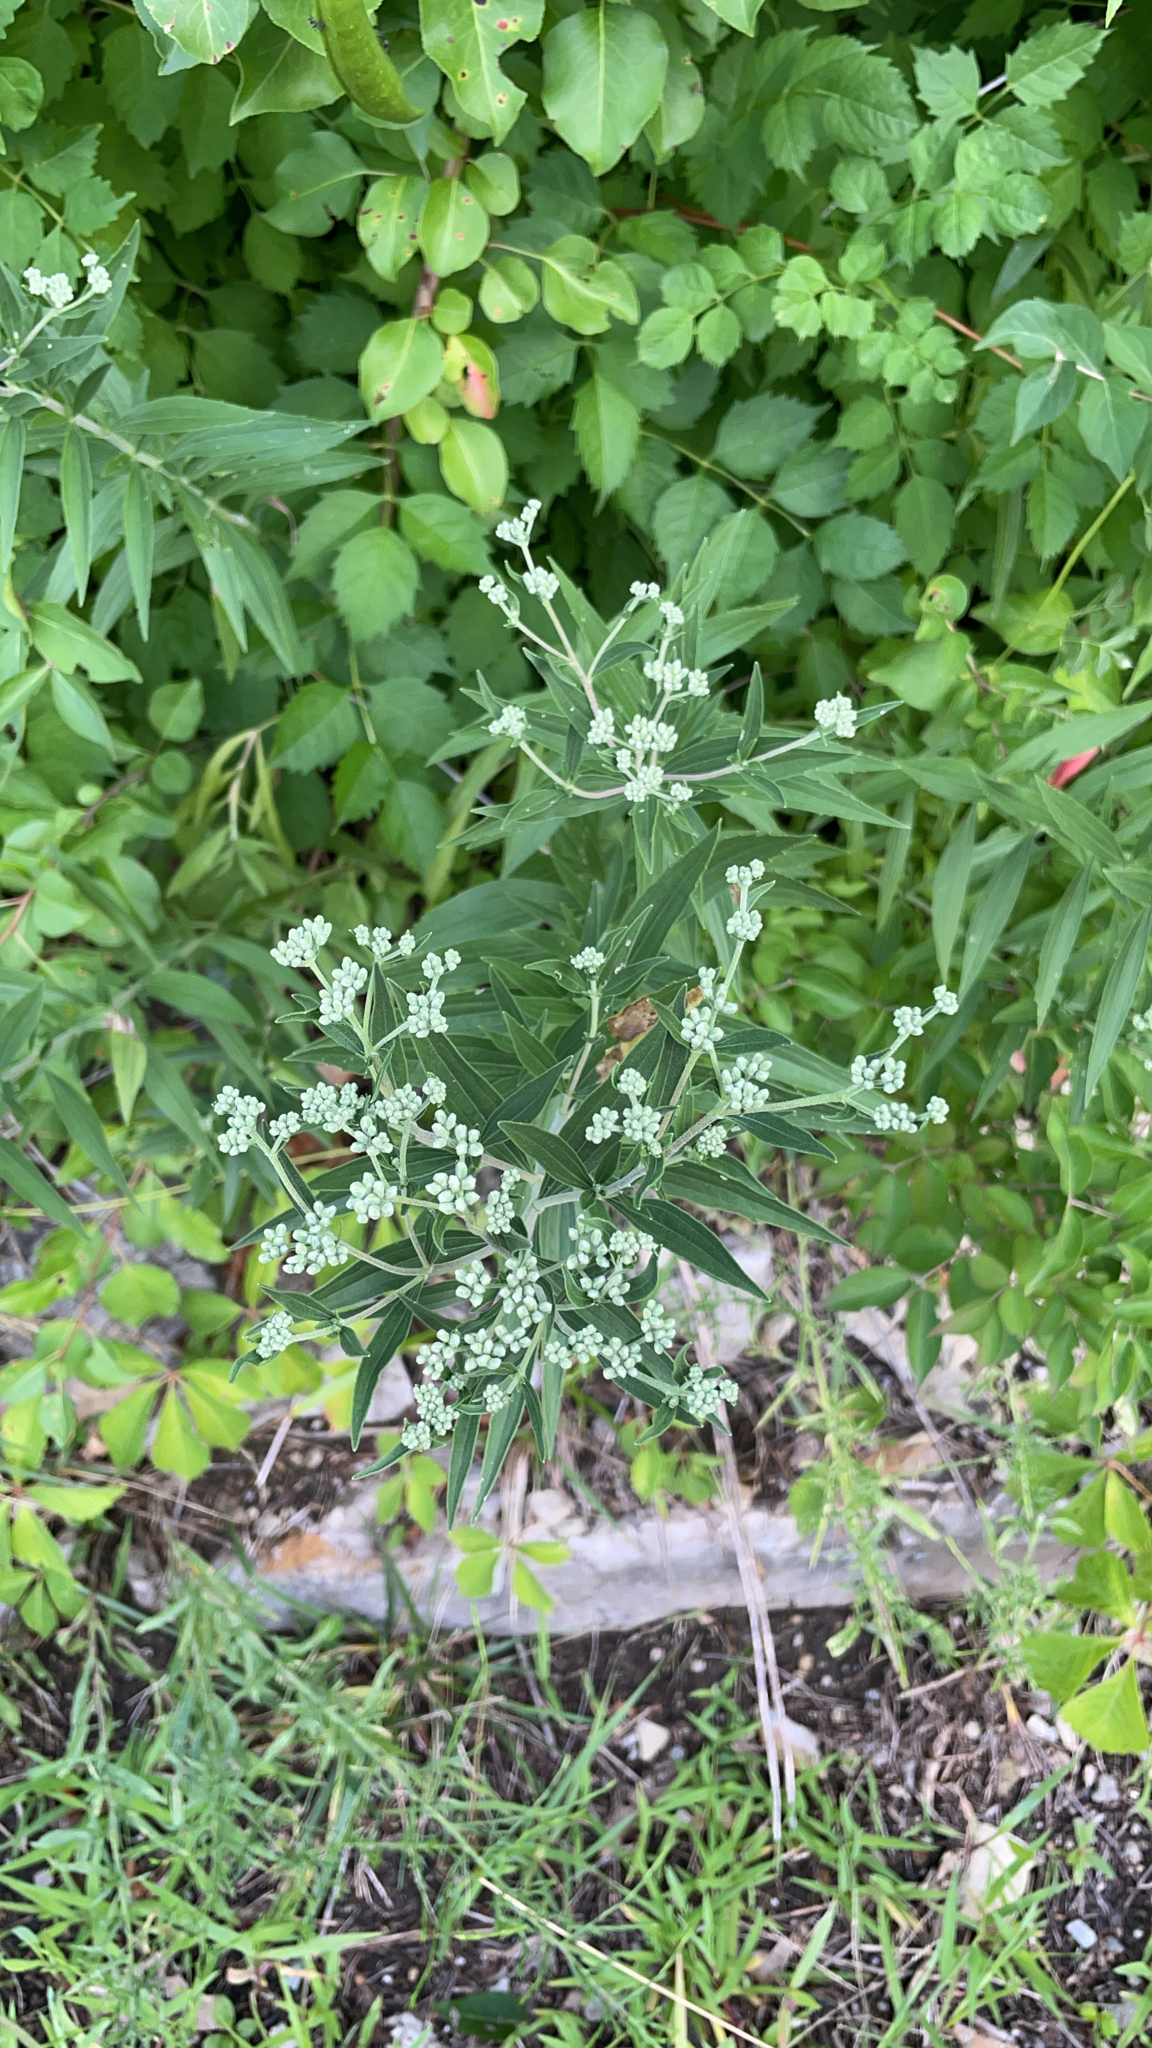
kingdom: Plantae
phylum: Tracheophyta
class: Magnoliopsida
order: Asterales
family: Asteraceae
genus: Eupatorium
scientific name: Eupatorium altissimum
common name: Tall thoroughwort
